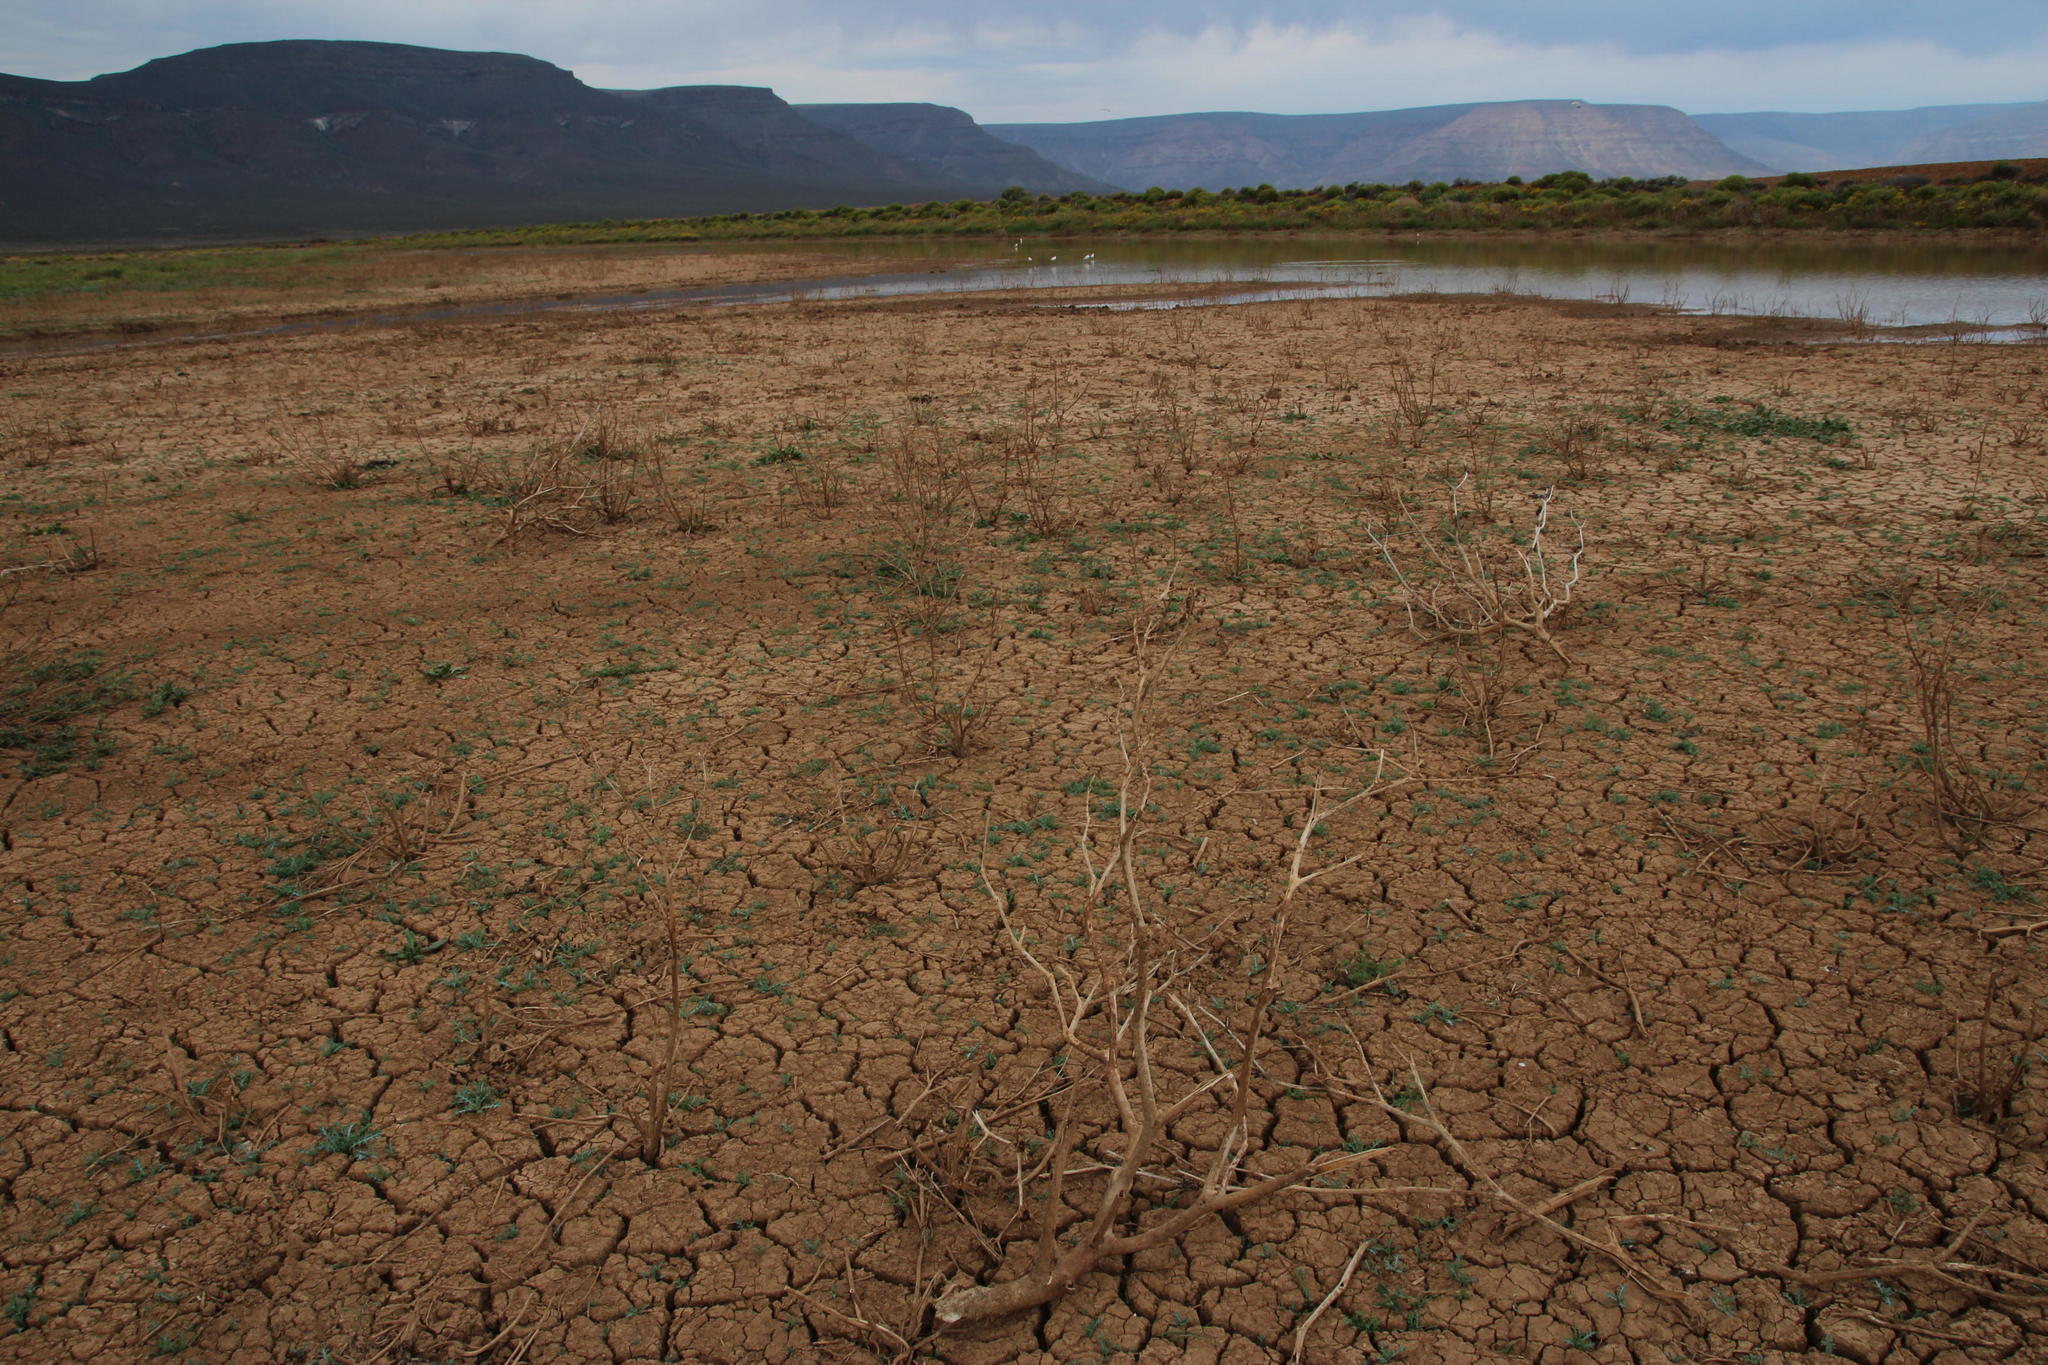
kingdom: Plantae
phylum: Tracheophyta
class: Magnoliopsida
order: Solanales
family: Solanaceae
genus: Datura
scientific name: Datura ferox
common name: Angel's-trumpets
